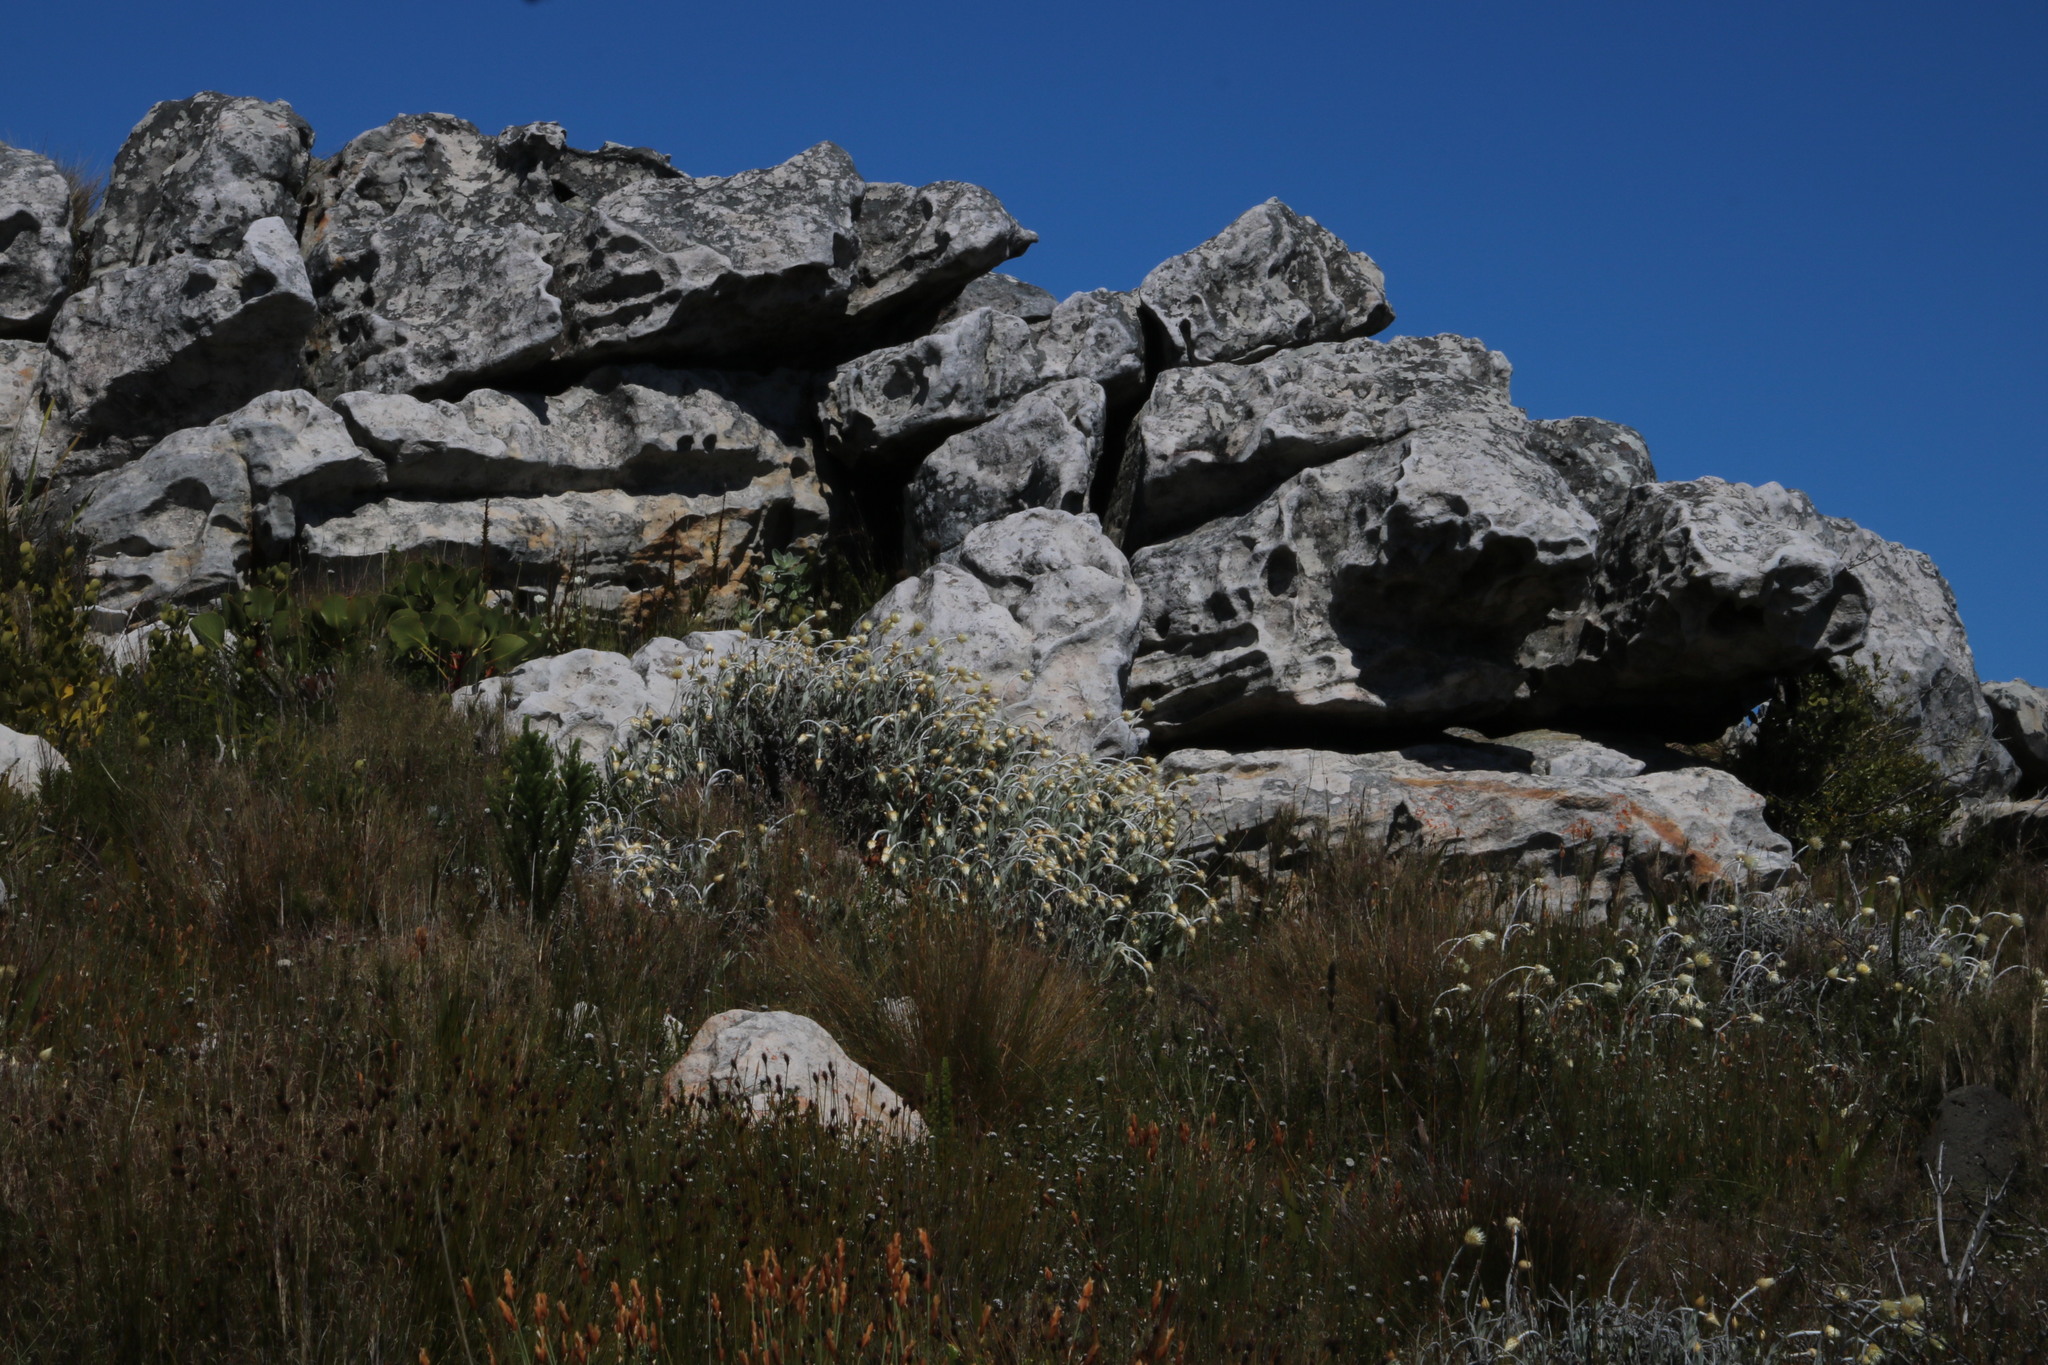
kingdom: Plantae
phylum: Tracheophyta
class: Magnoliopsida
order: Asterales
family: Asteraceae
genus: Syncarpha
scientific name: Syncarpha speciosissima
